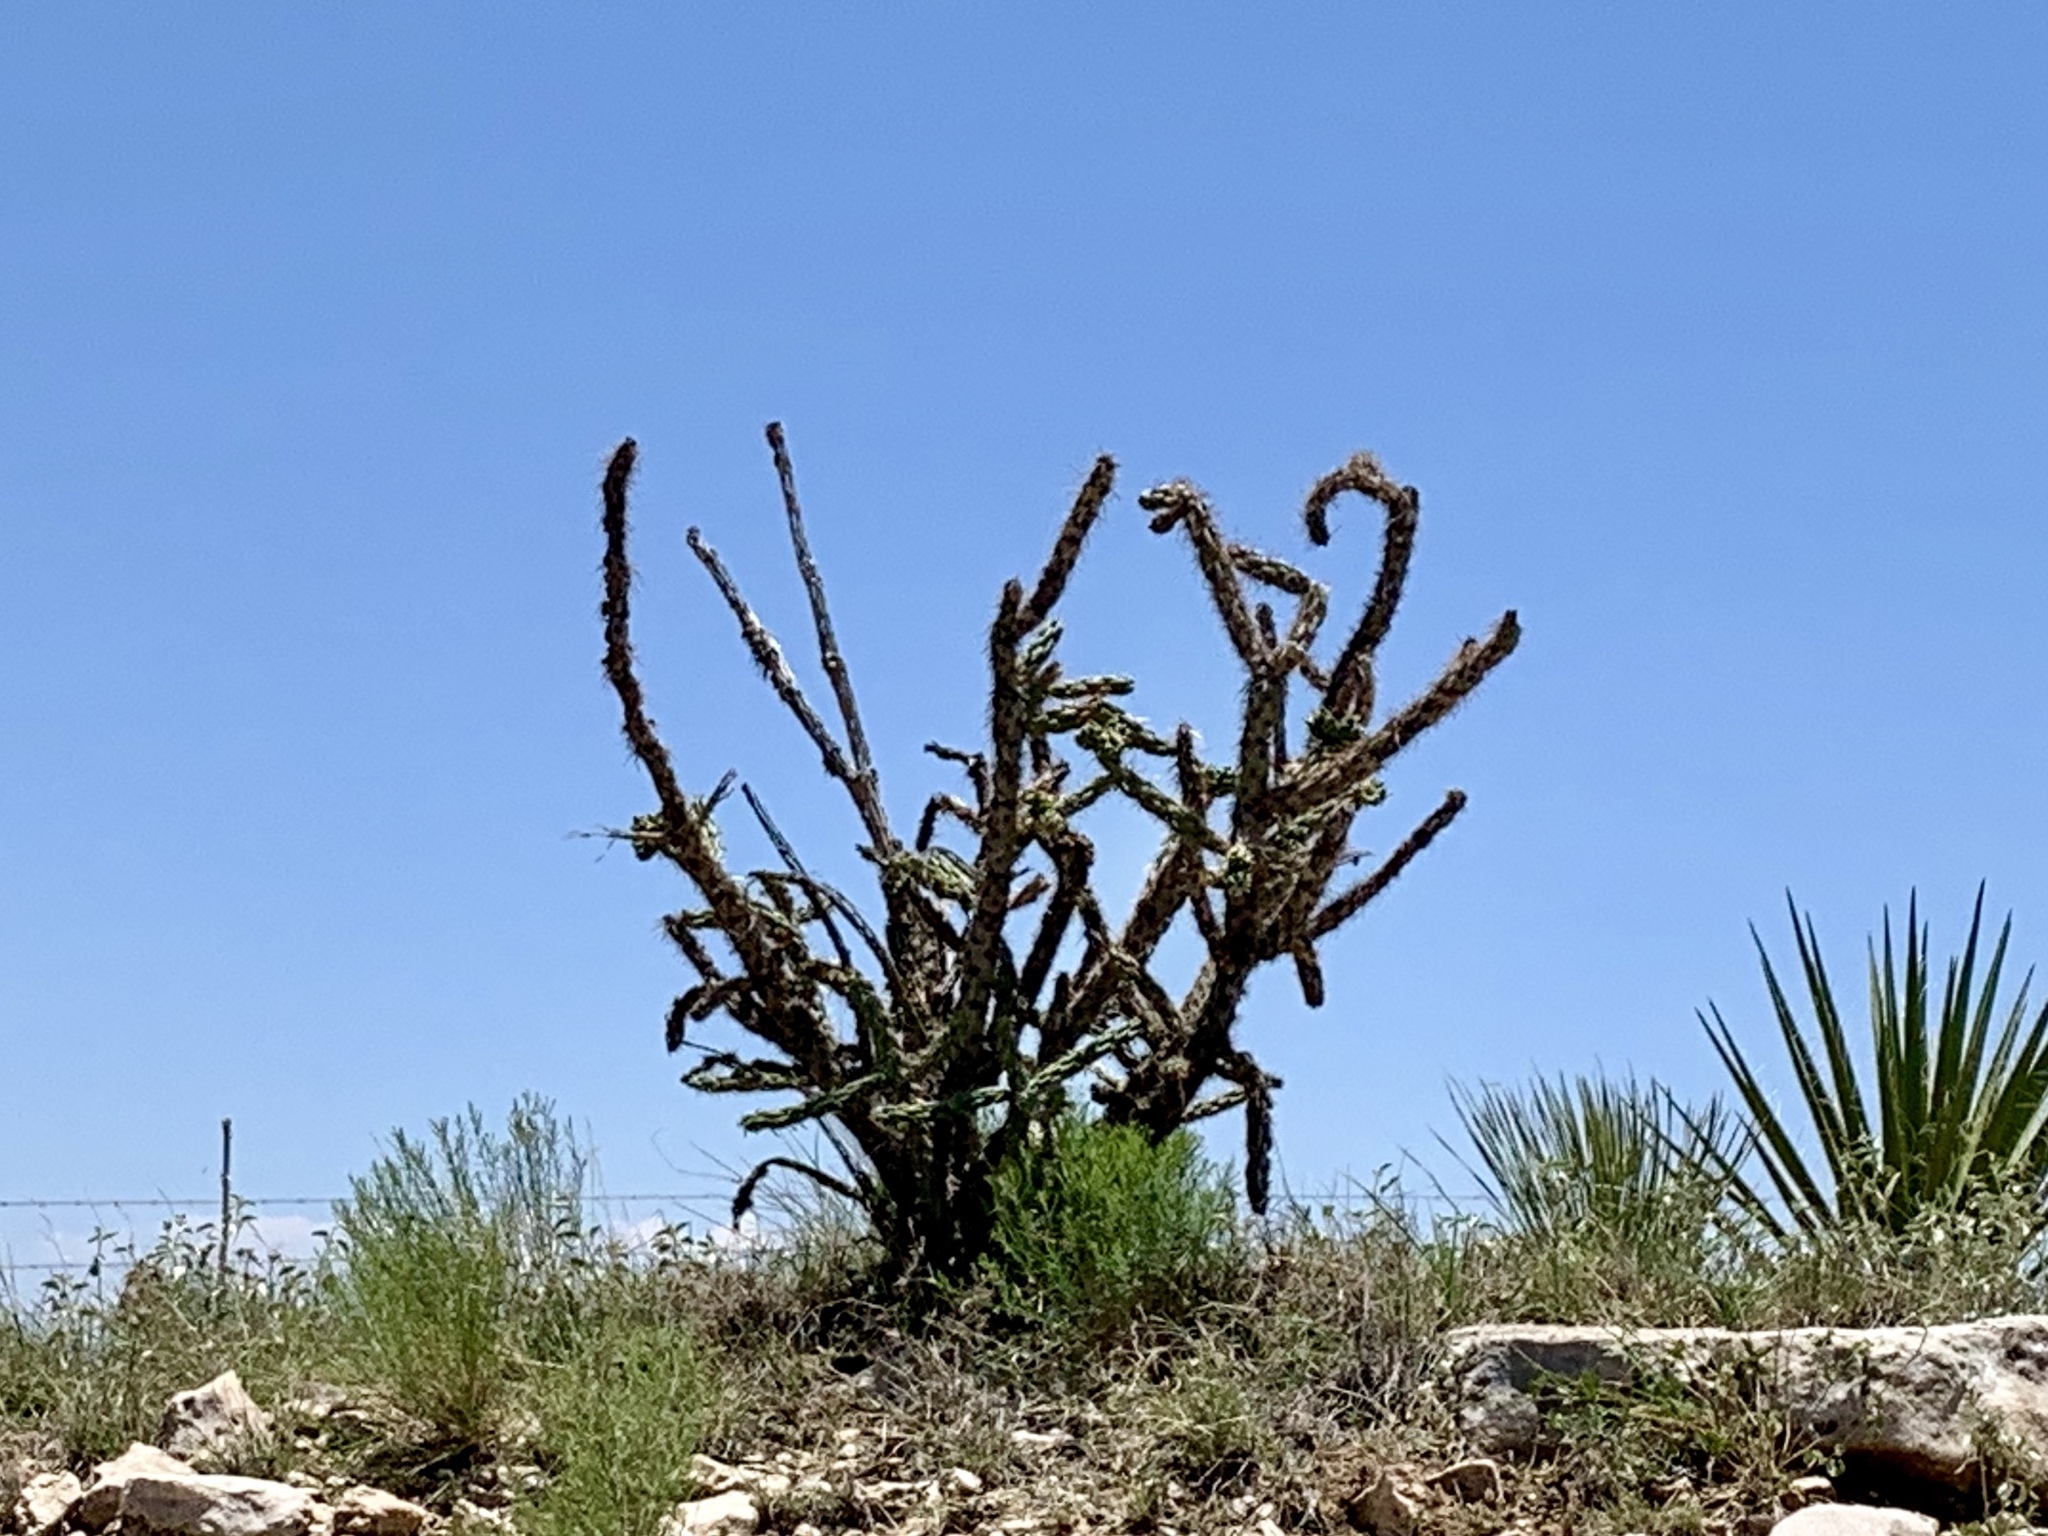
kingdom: Plantae
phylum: Tracheophyta
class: Magnoliopsida
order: Caryophyllales
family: Cactaceae
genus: Cylindropuntia
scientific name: Cylindropuntia imbricata
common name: Candelabrum cactus
